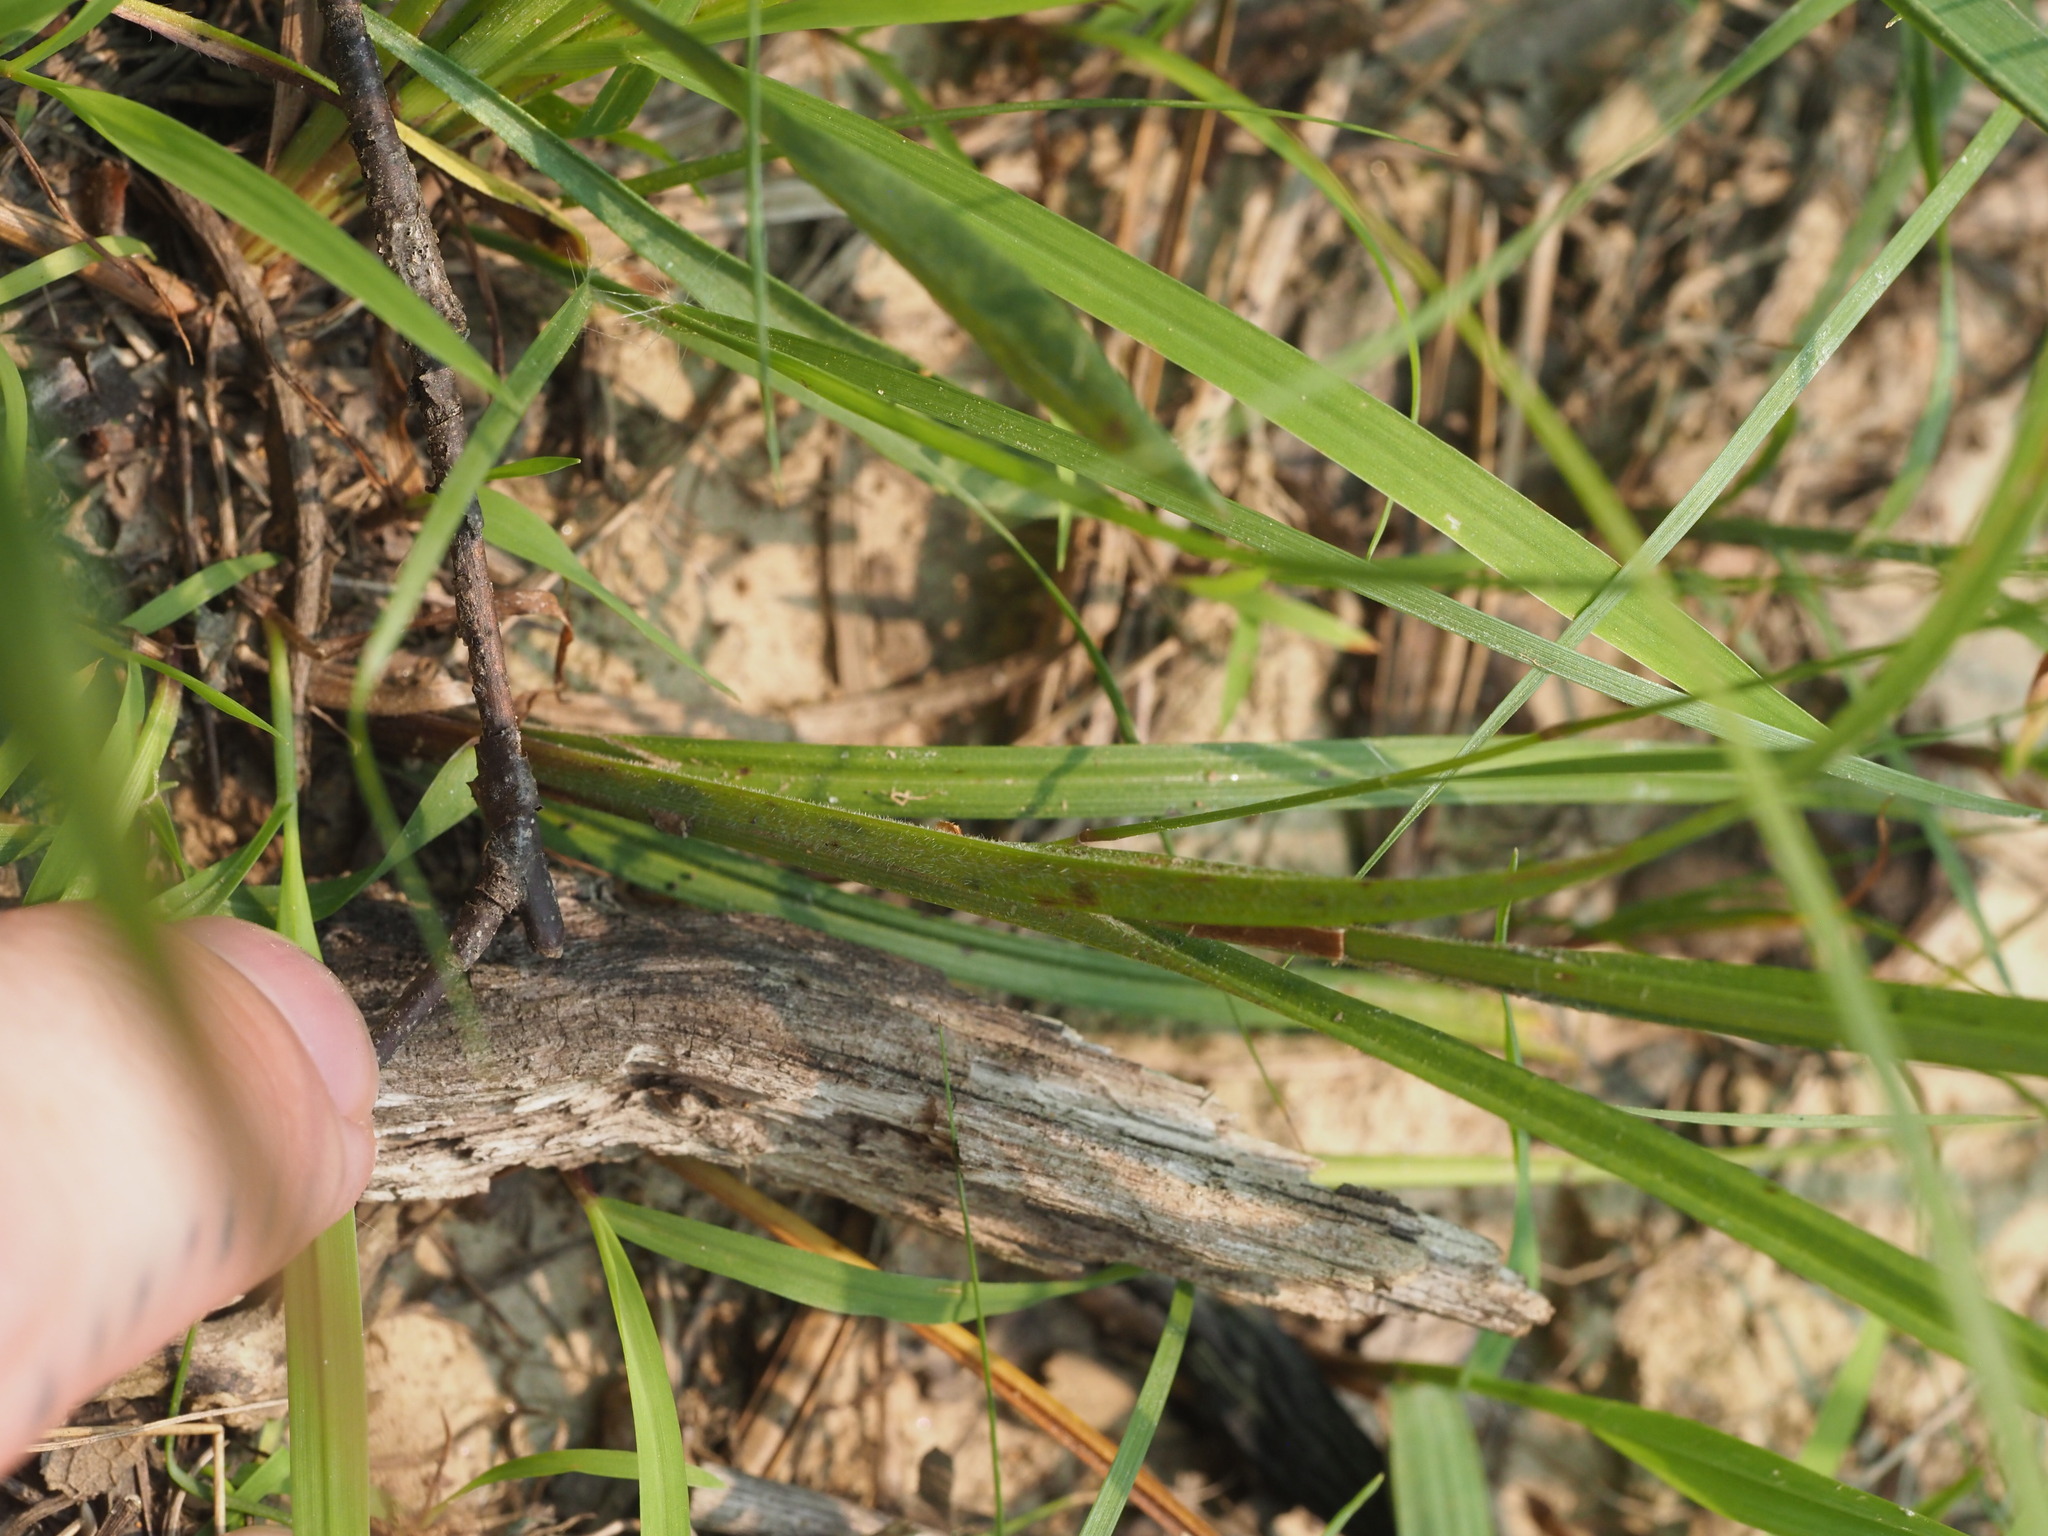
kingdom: Plantae
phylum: Tracheophyta
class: Liliopsida
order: Poales
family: Cyperaceae
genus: Carex
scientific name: Carex swanii
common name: Downy green sedge
